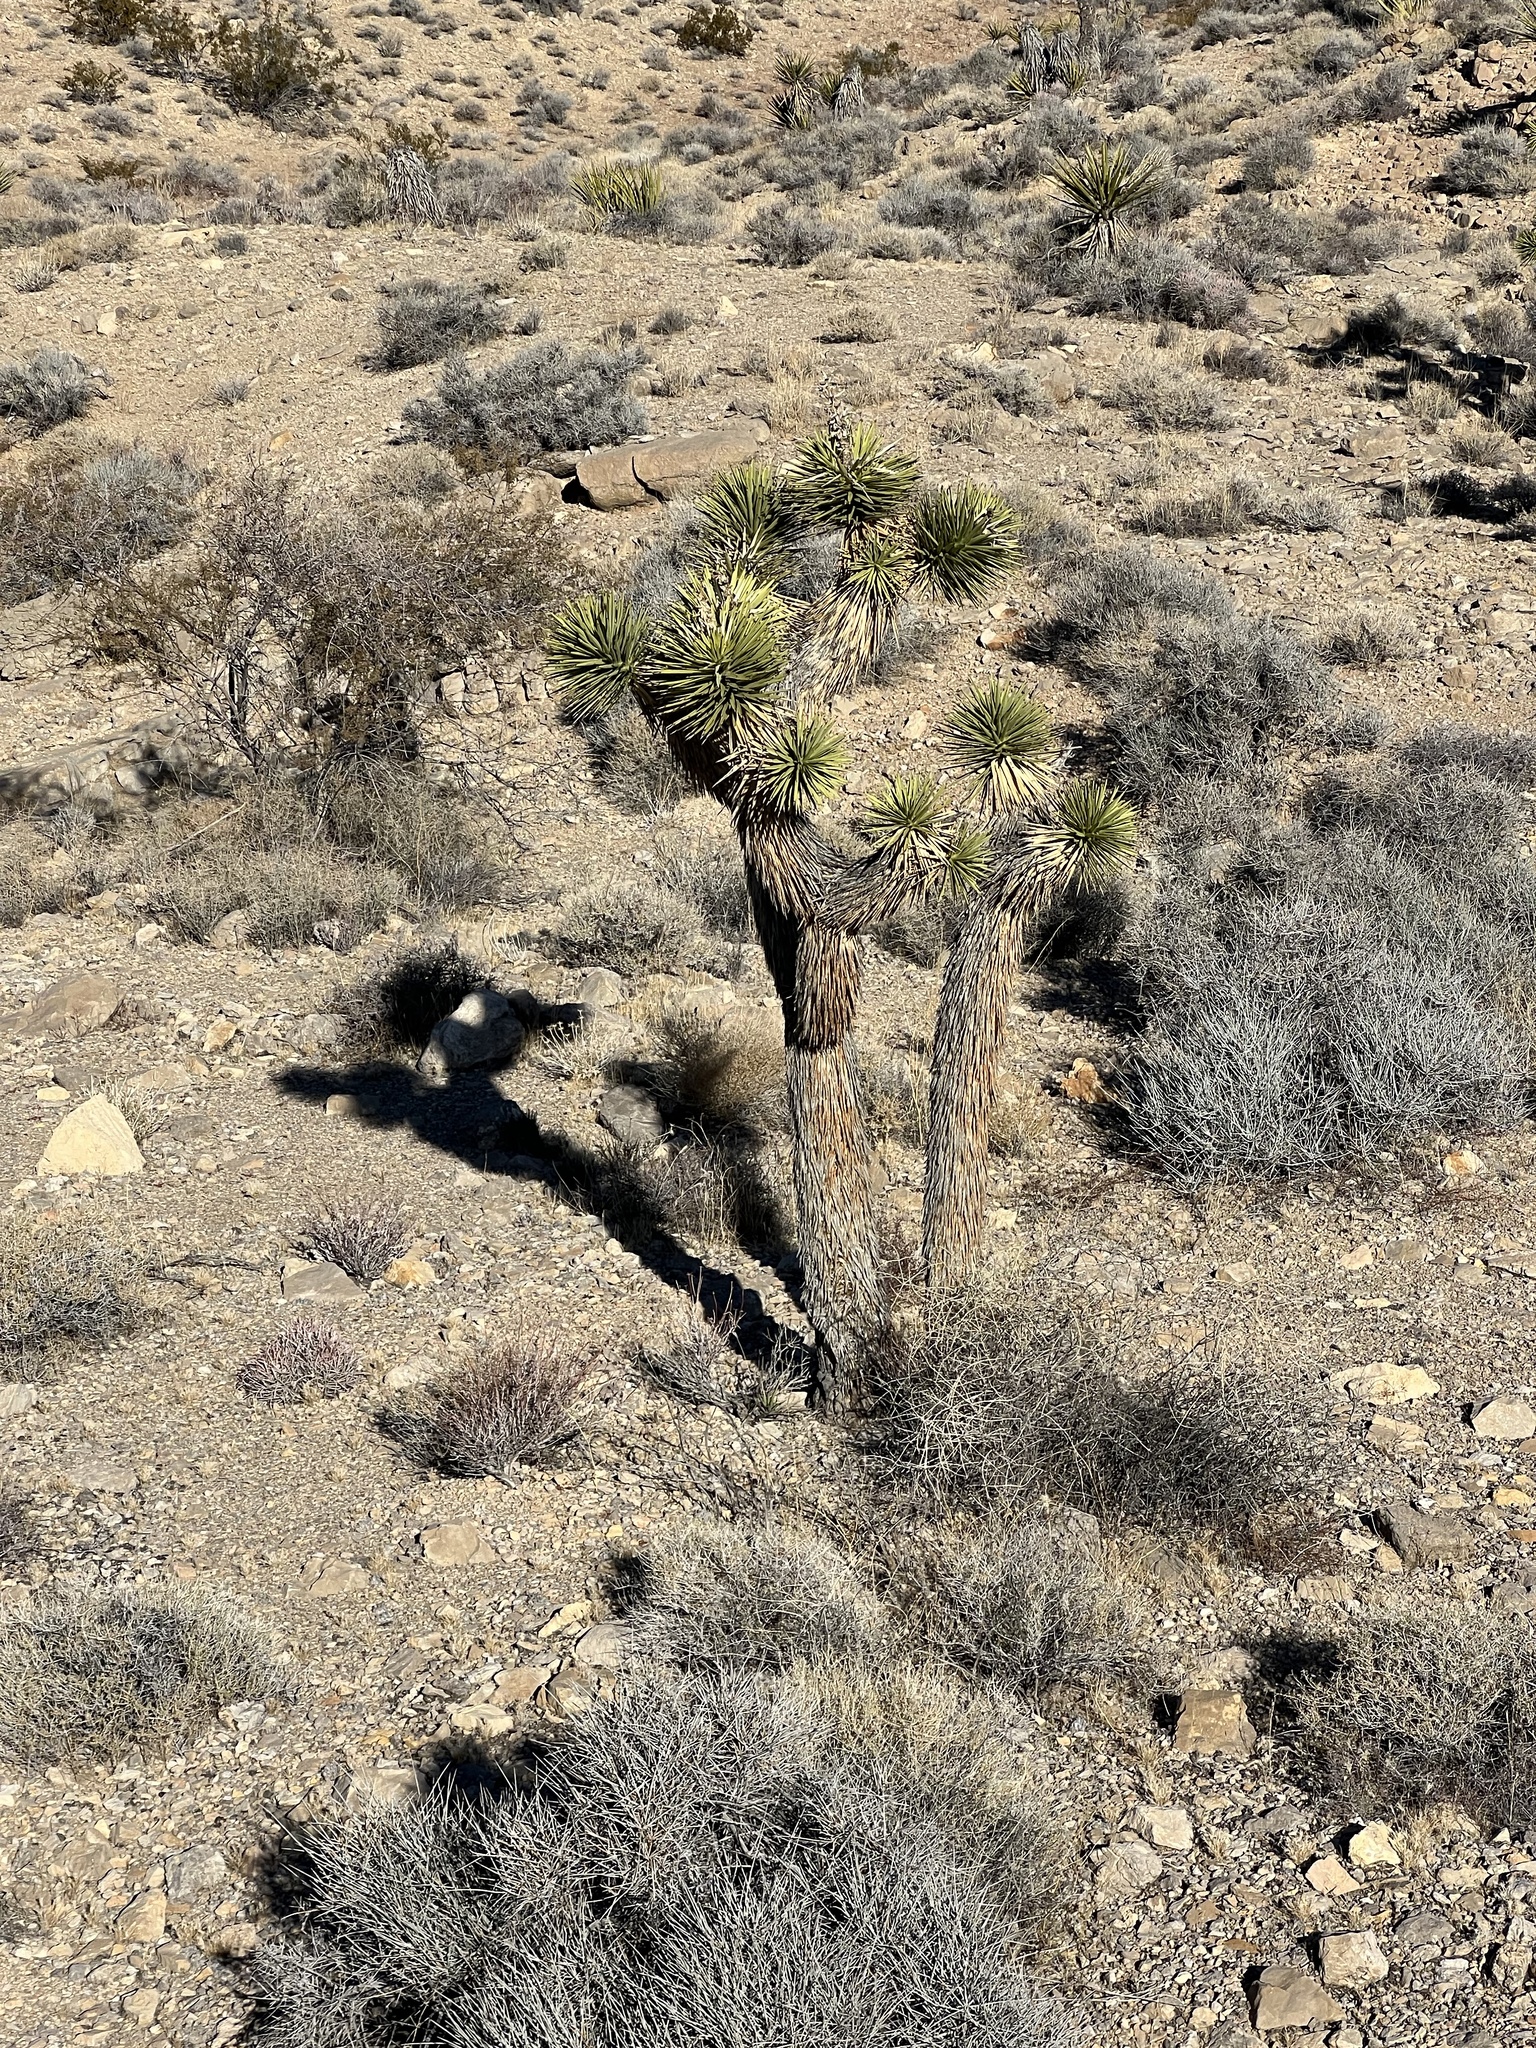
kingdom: Plantae
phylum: Tracheophyta
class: Liliopsida
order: Asparagales
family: Asparagaceae
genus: Yucca
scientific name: Yucca brevifolia
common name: Joshua tree
